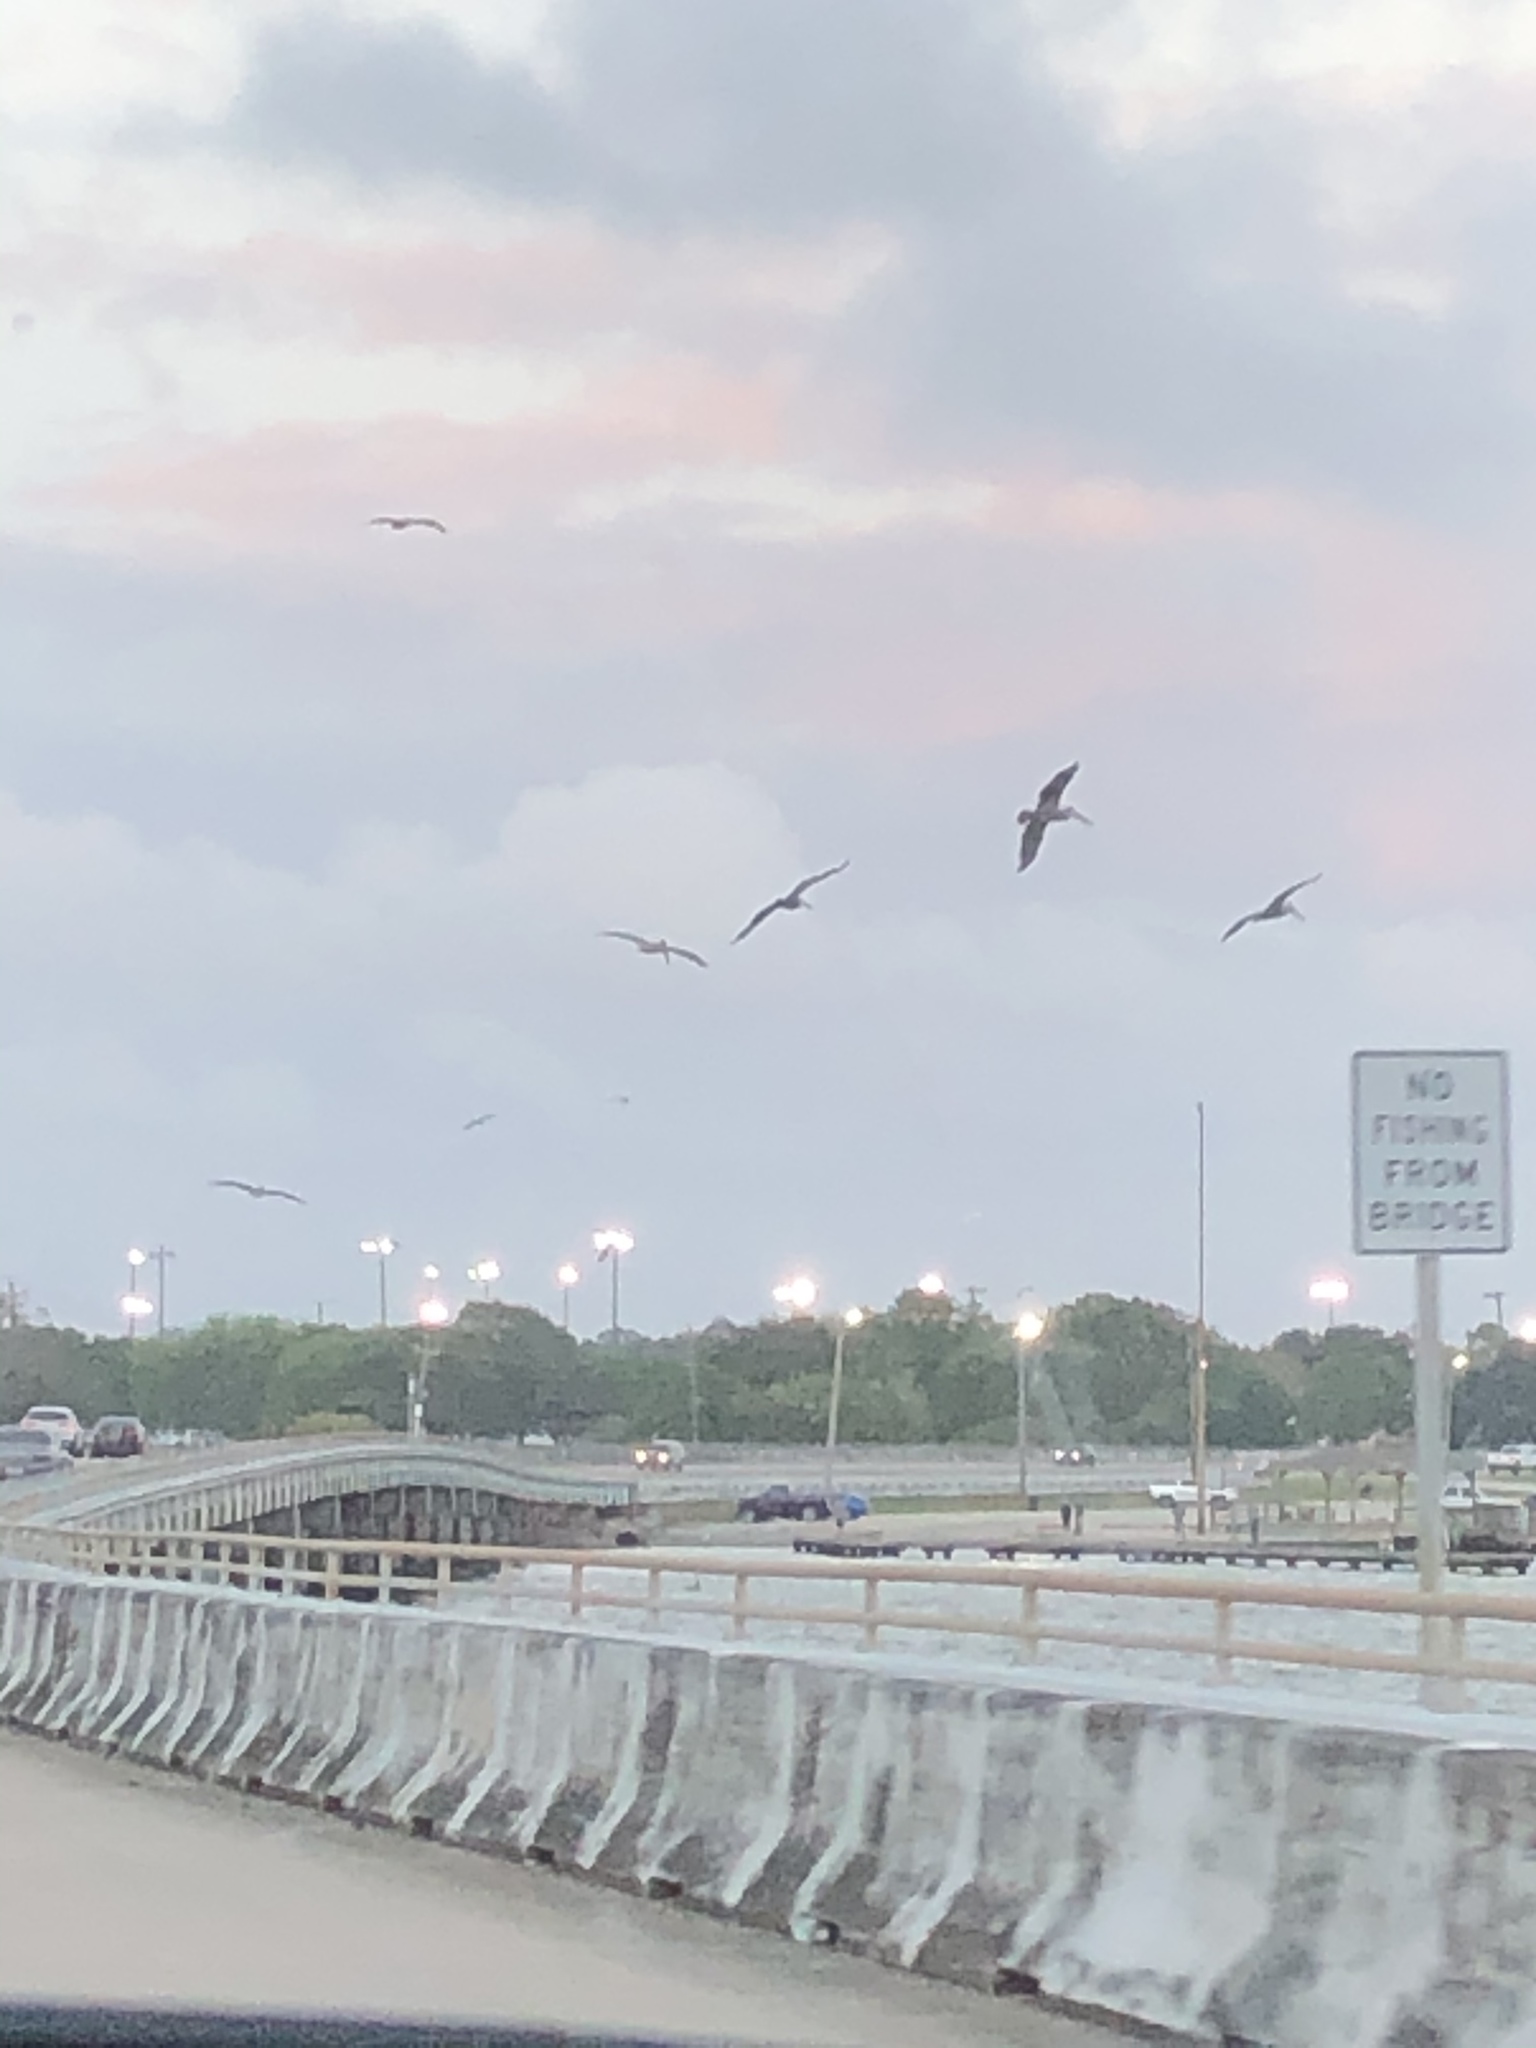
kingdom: Animalia
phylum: Chordata
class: Aves
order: Pelecaniformes
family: Pelecanidae
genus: Pelecanus
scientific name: Pelecanus occidentalis
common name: Brown pelican
